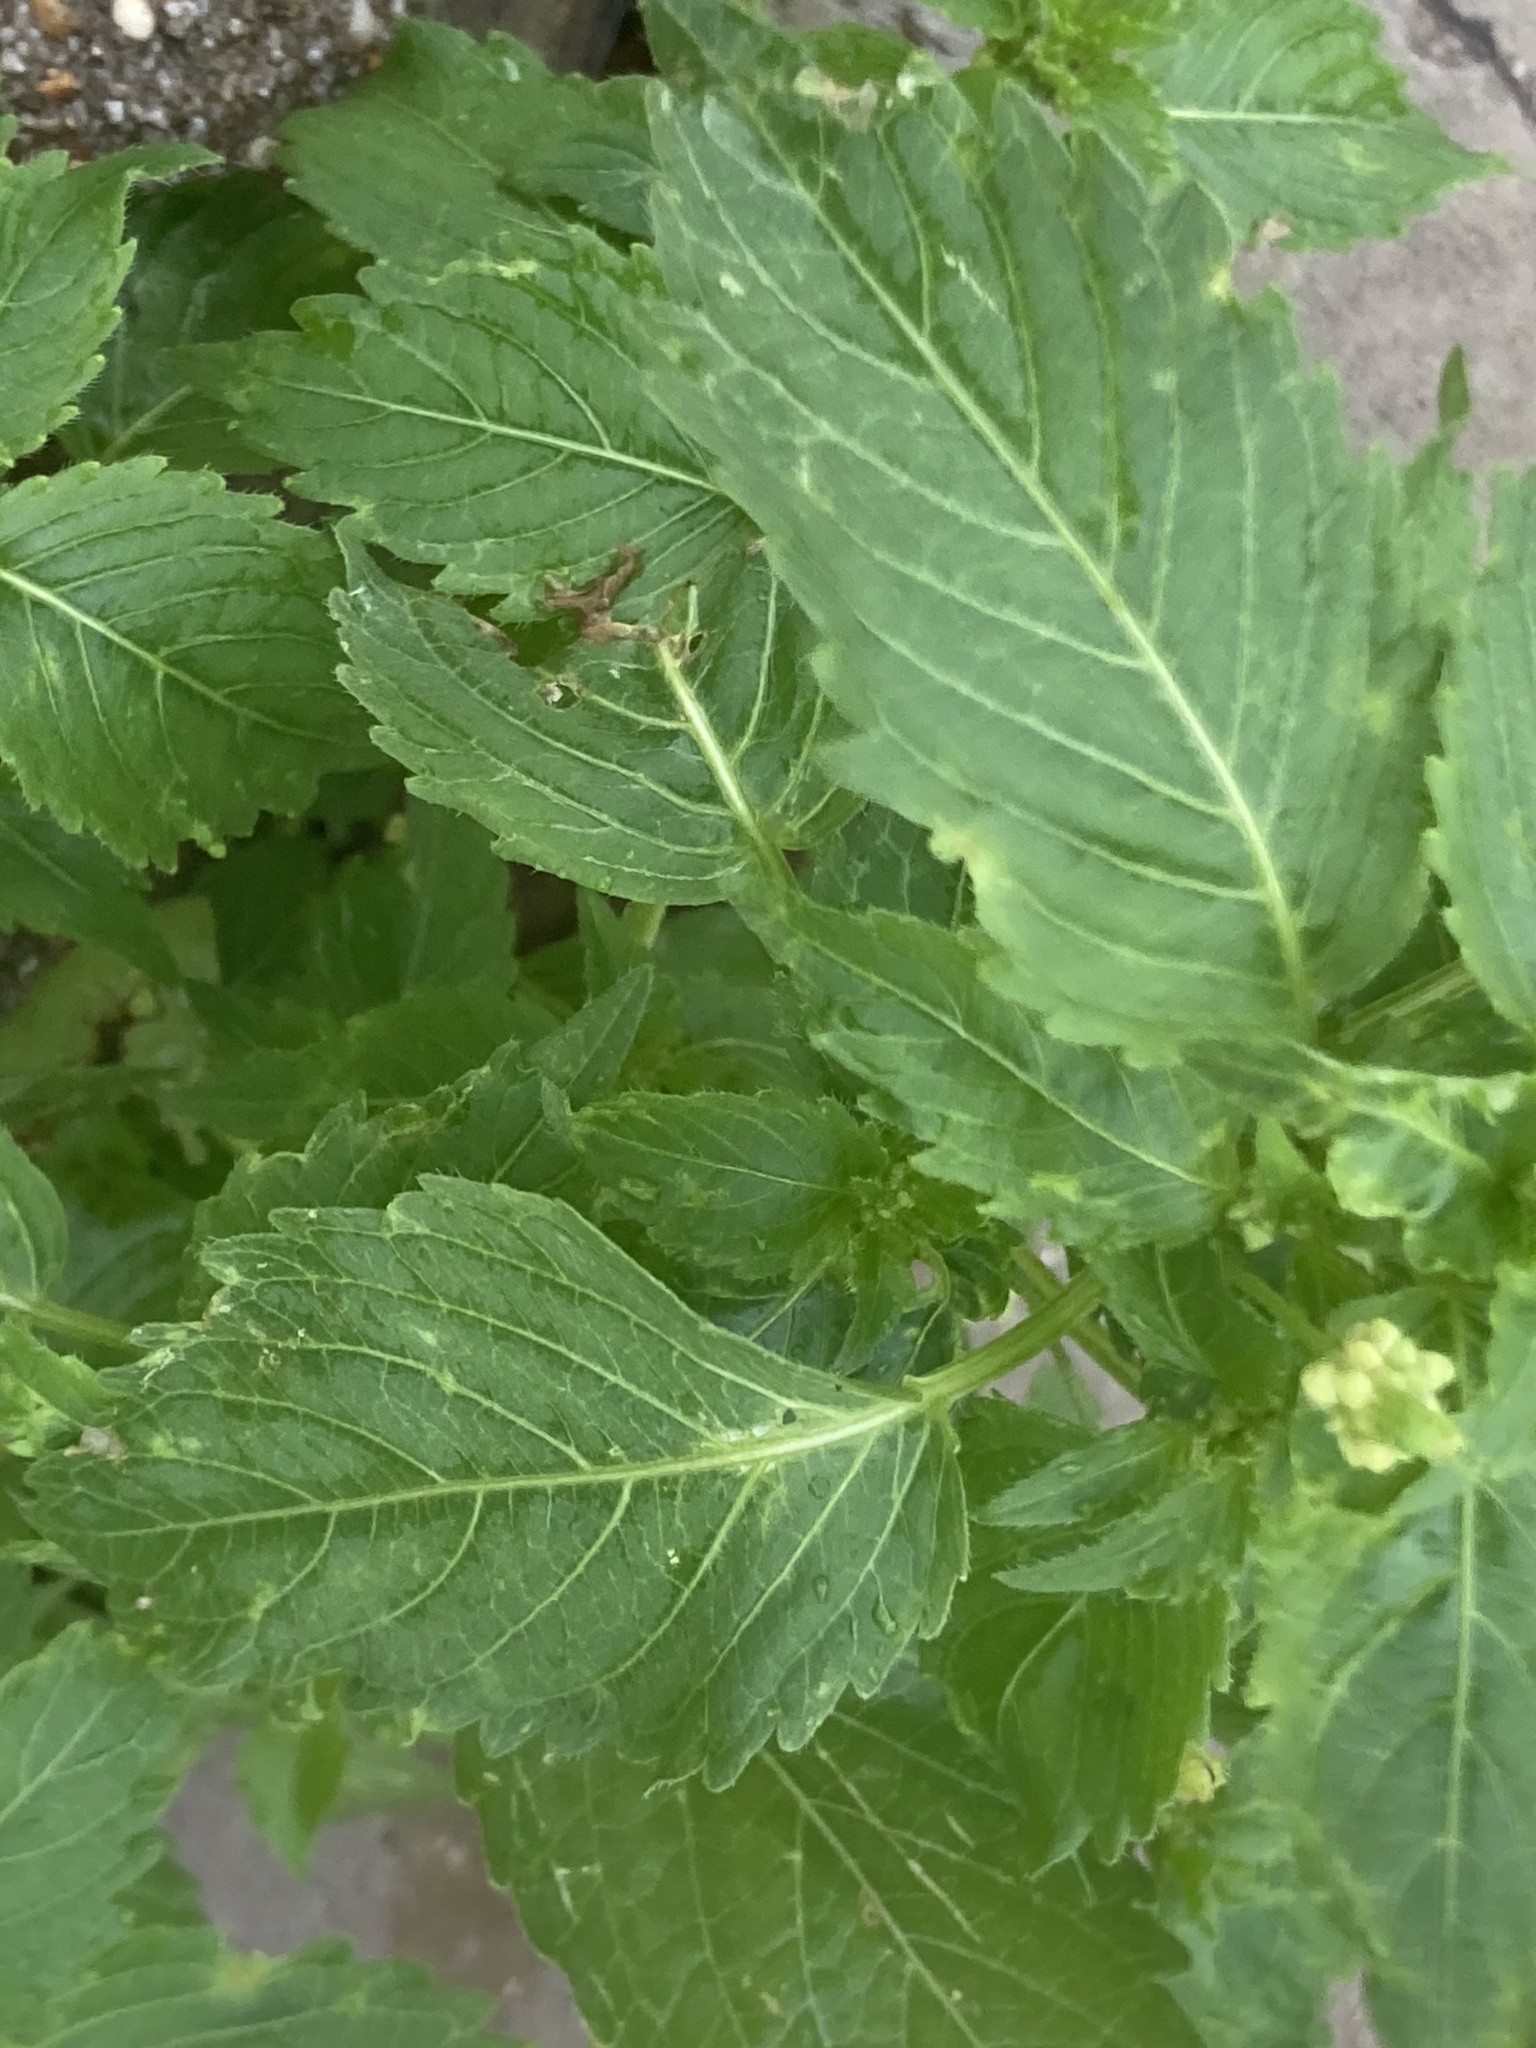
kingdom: Plantae
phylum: Tracheophyta
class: Magnoliopsida
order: Malpighiales
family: Euphorbiaceae
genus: Mercurialis
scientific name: Mercurialis annua
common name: Annual mercury
